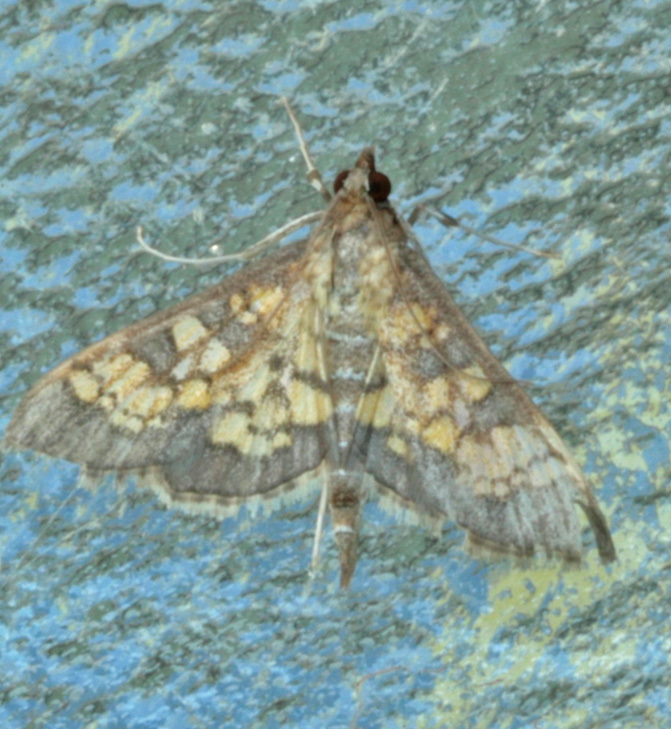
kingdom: Animalia
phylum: Arthropoda
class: Insecta
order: Lepidoptera
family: Crambidae
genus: Epipagis
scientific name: Epipagis adipaloides
